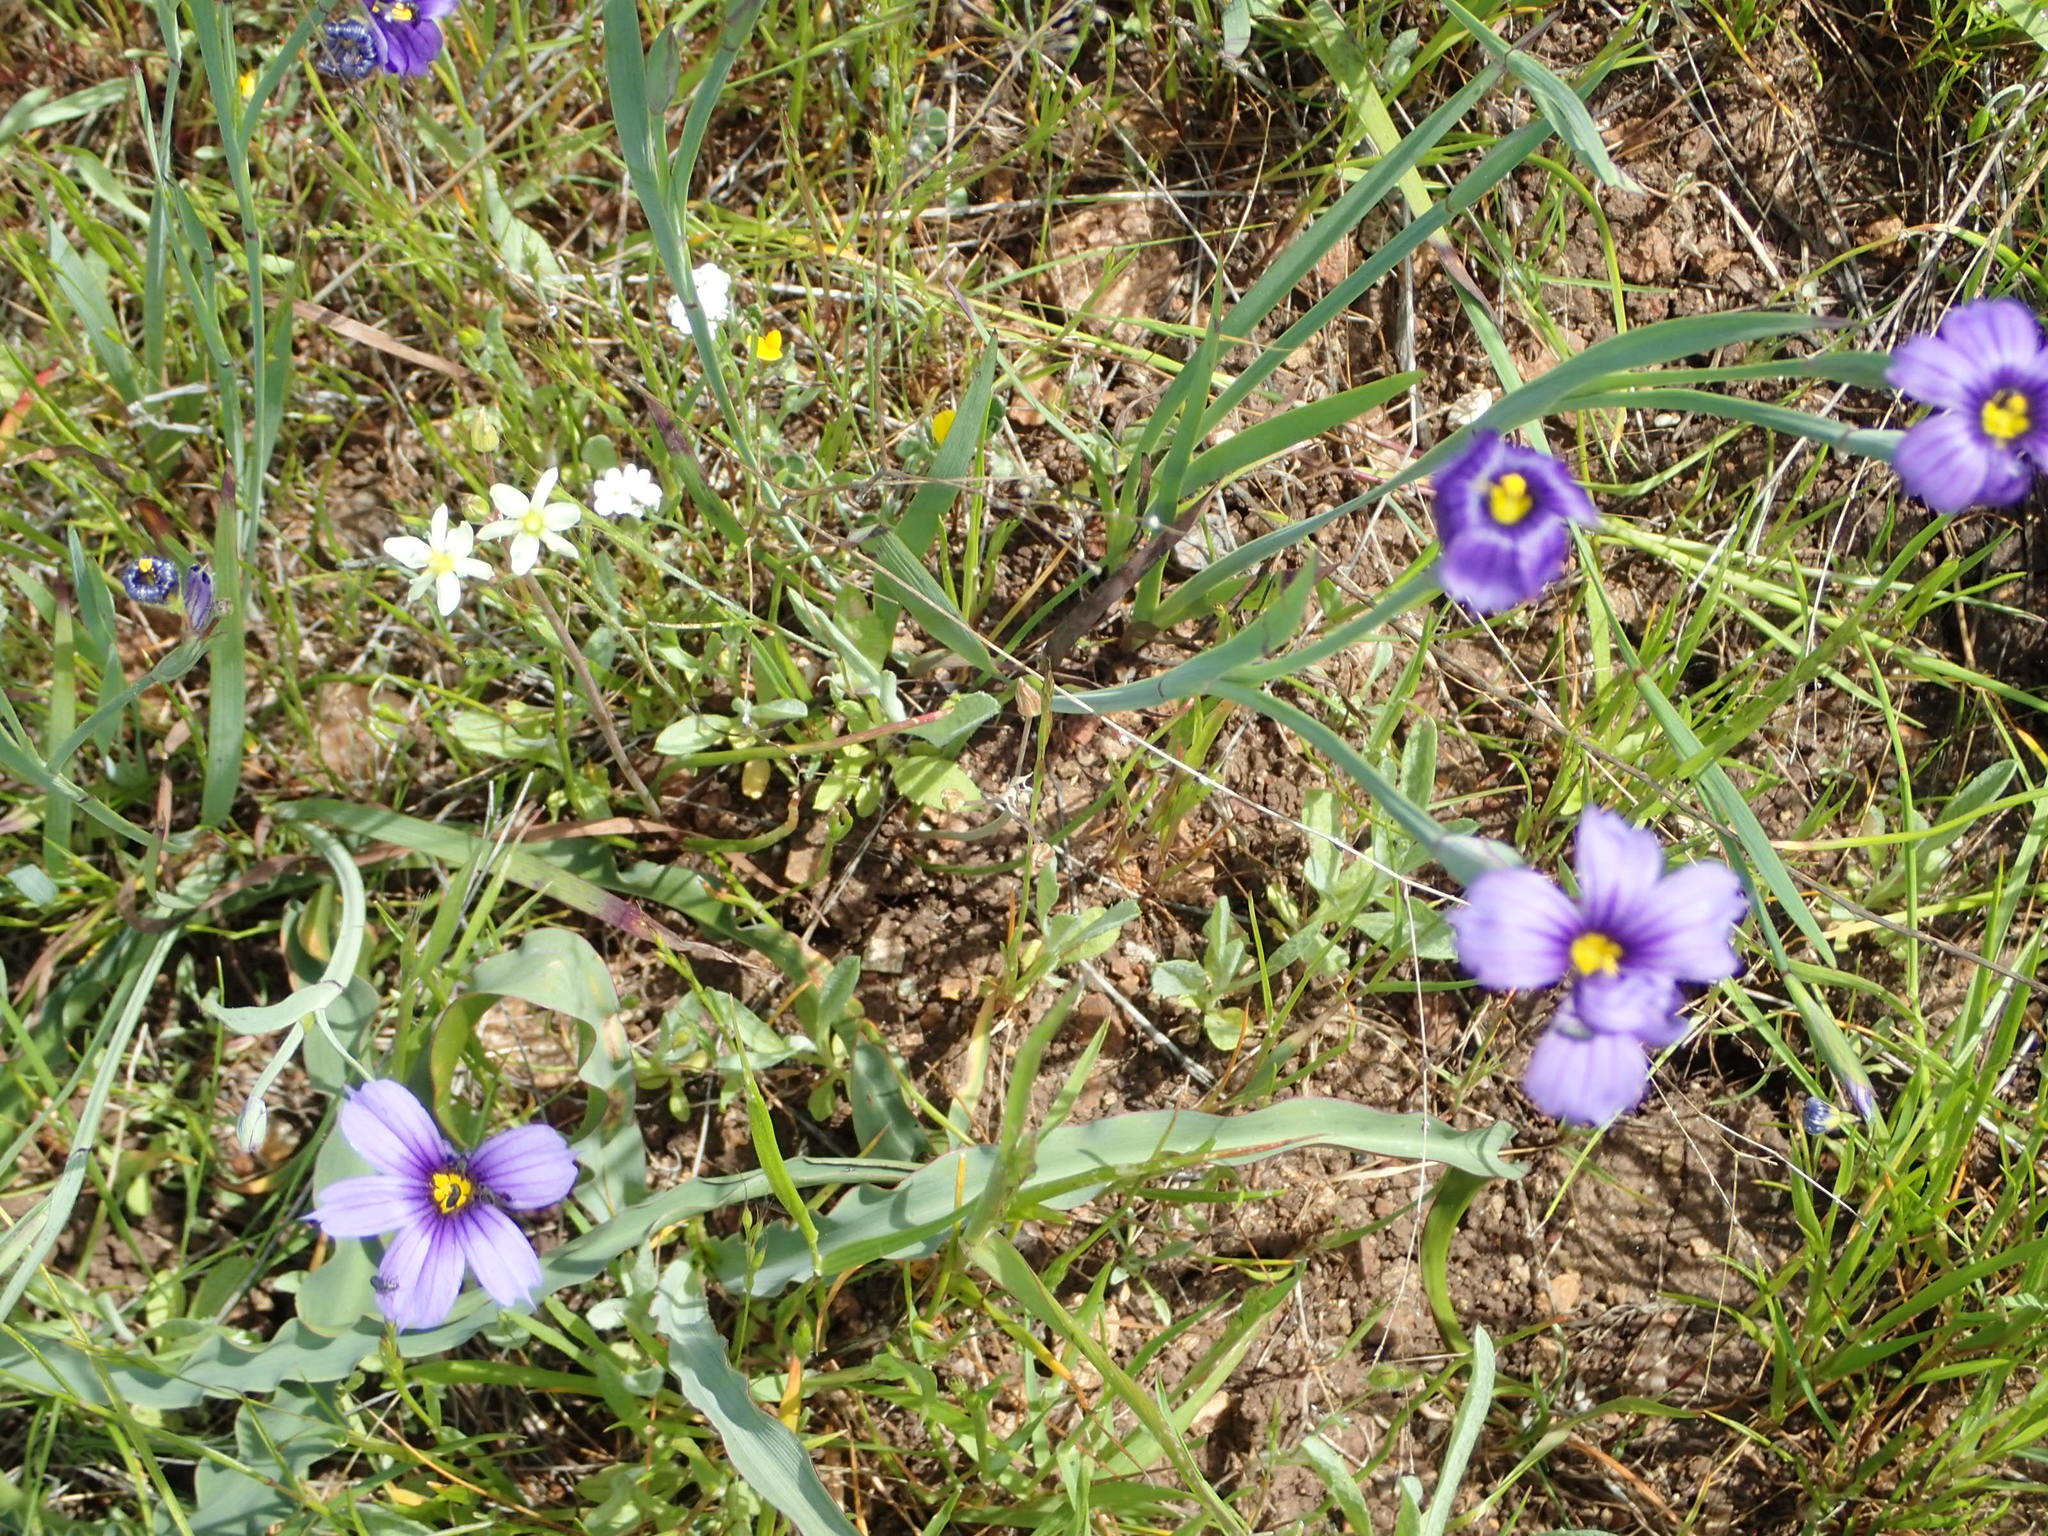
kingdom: Plantae
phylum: Tracheophyta
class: Liliopsida
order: Asparagales
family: Iridaceae
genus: Sisyrinchium
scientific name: Sisyrinchium bellum
